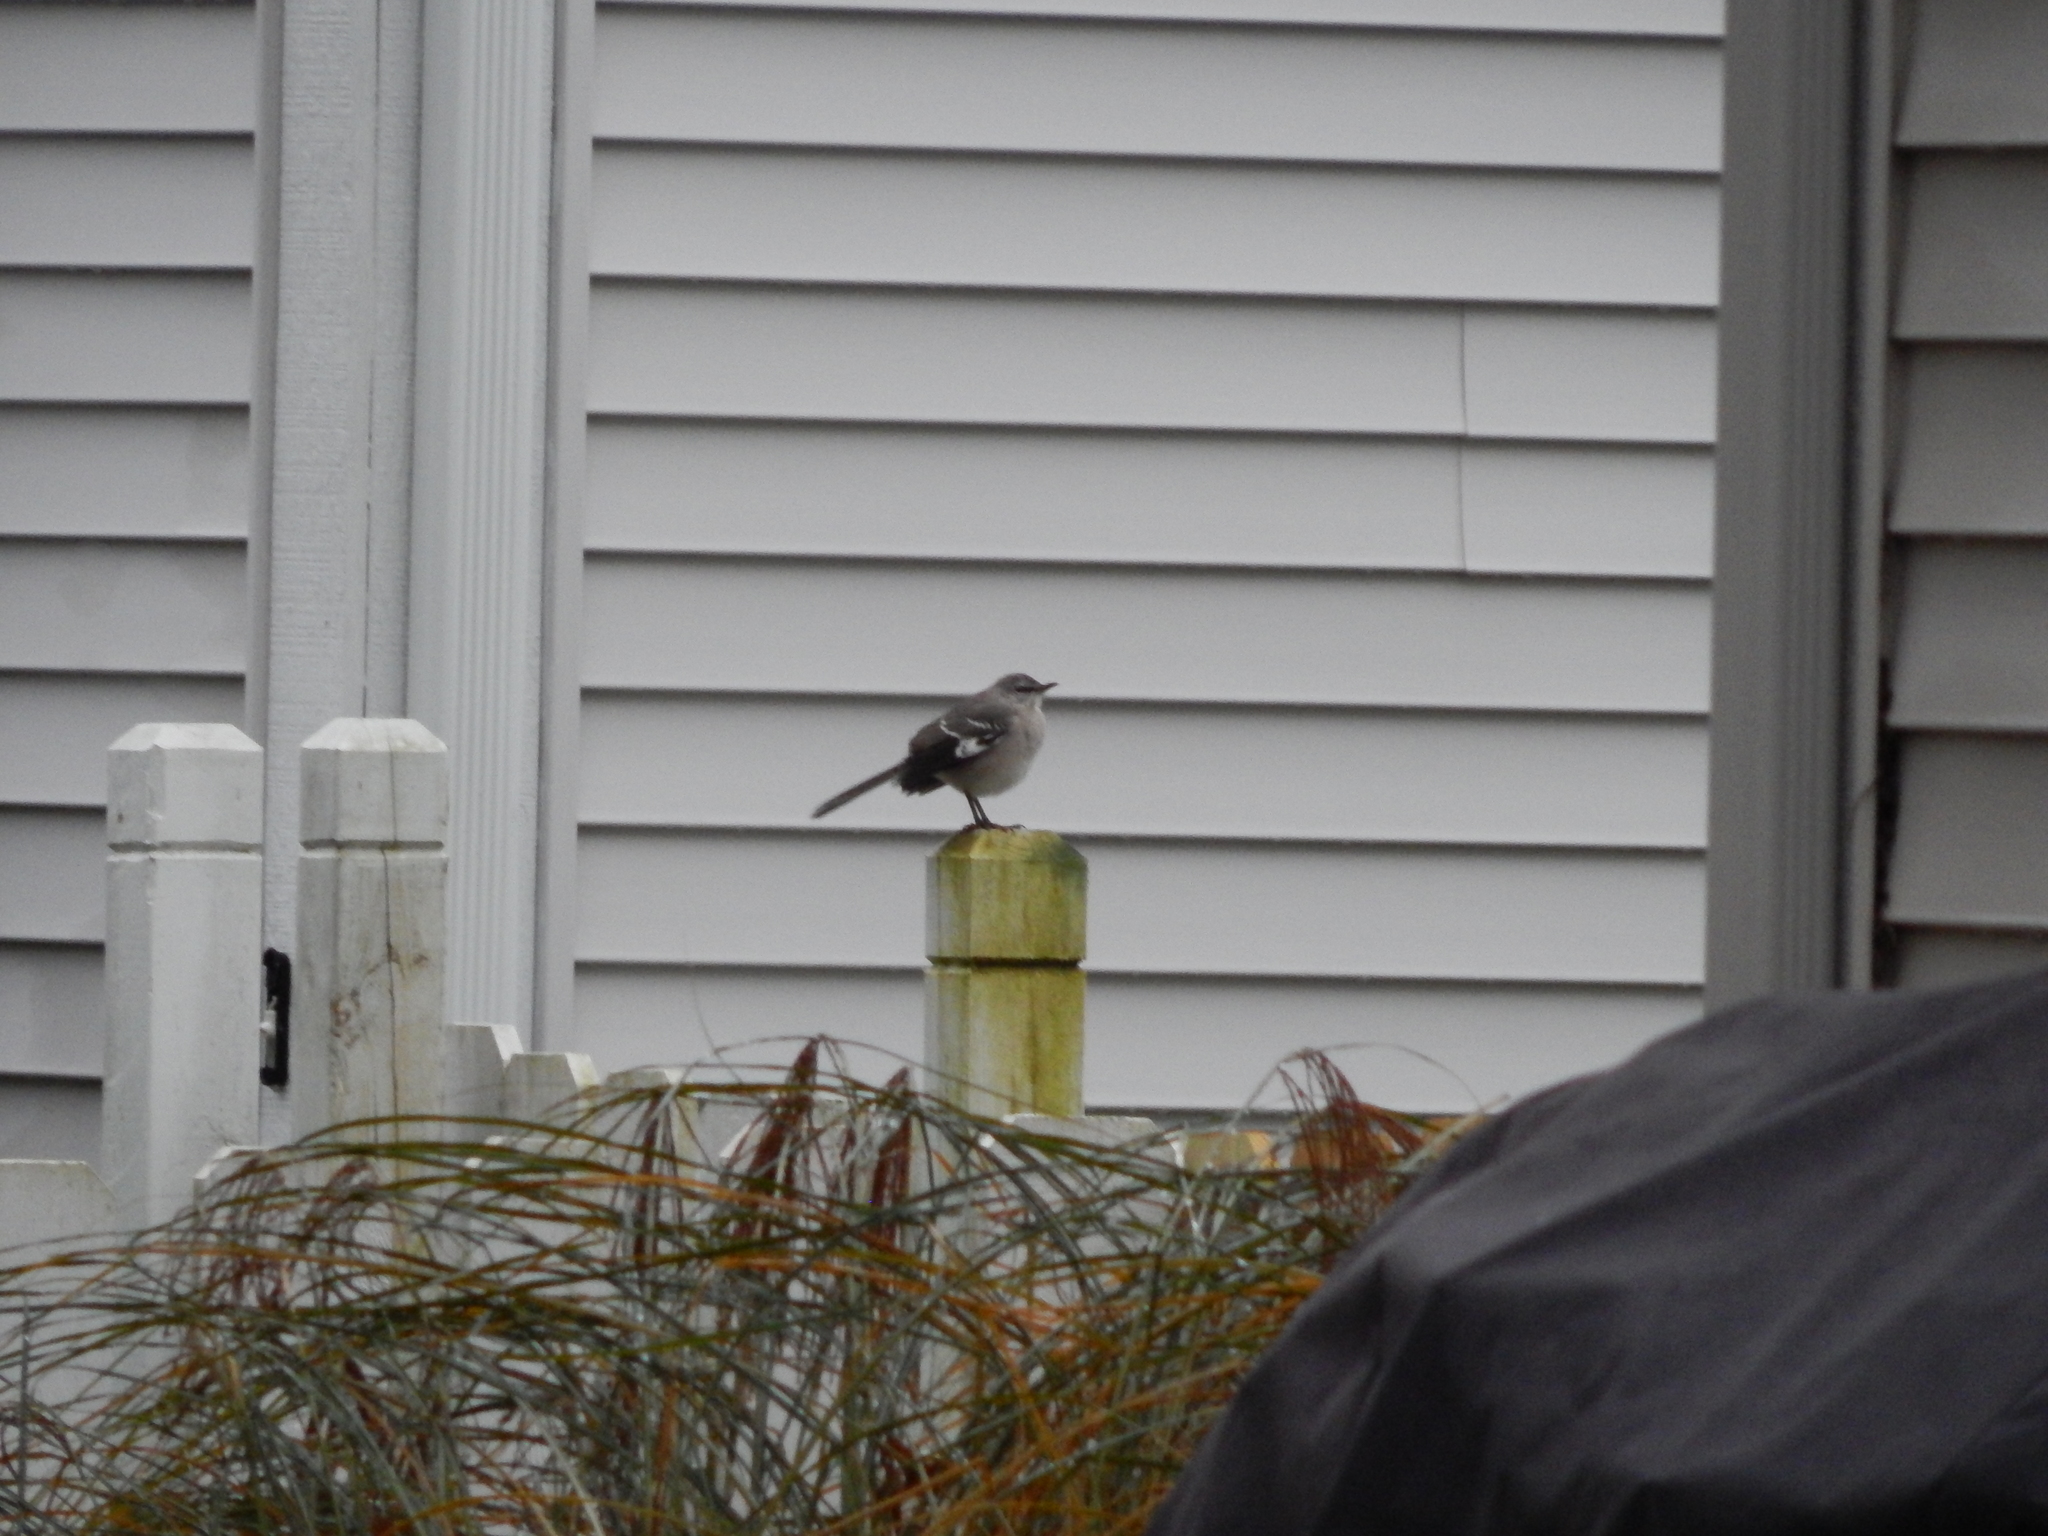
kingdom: Animalia
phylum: Chordata
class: Aves
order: Passeriformes
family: Mimidae
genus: Mimus
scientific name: Mimus polyglottos
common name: Northern mockingbird
